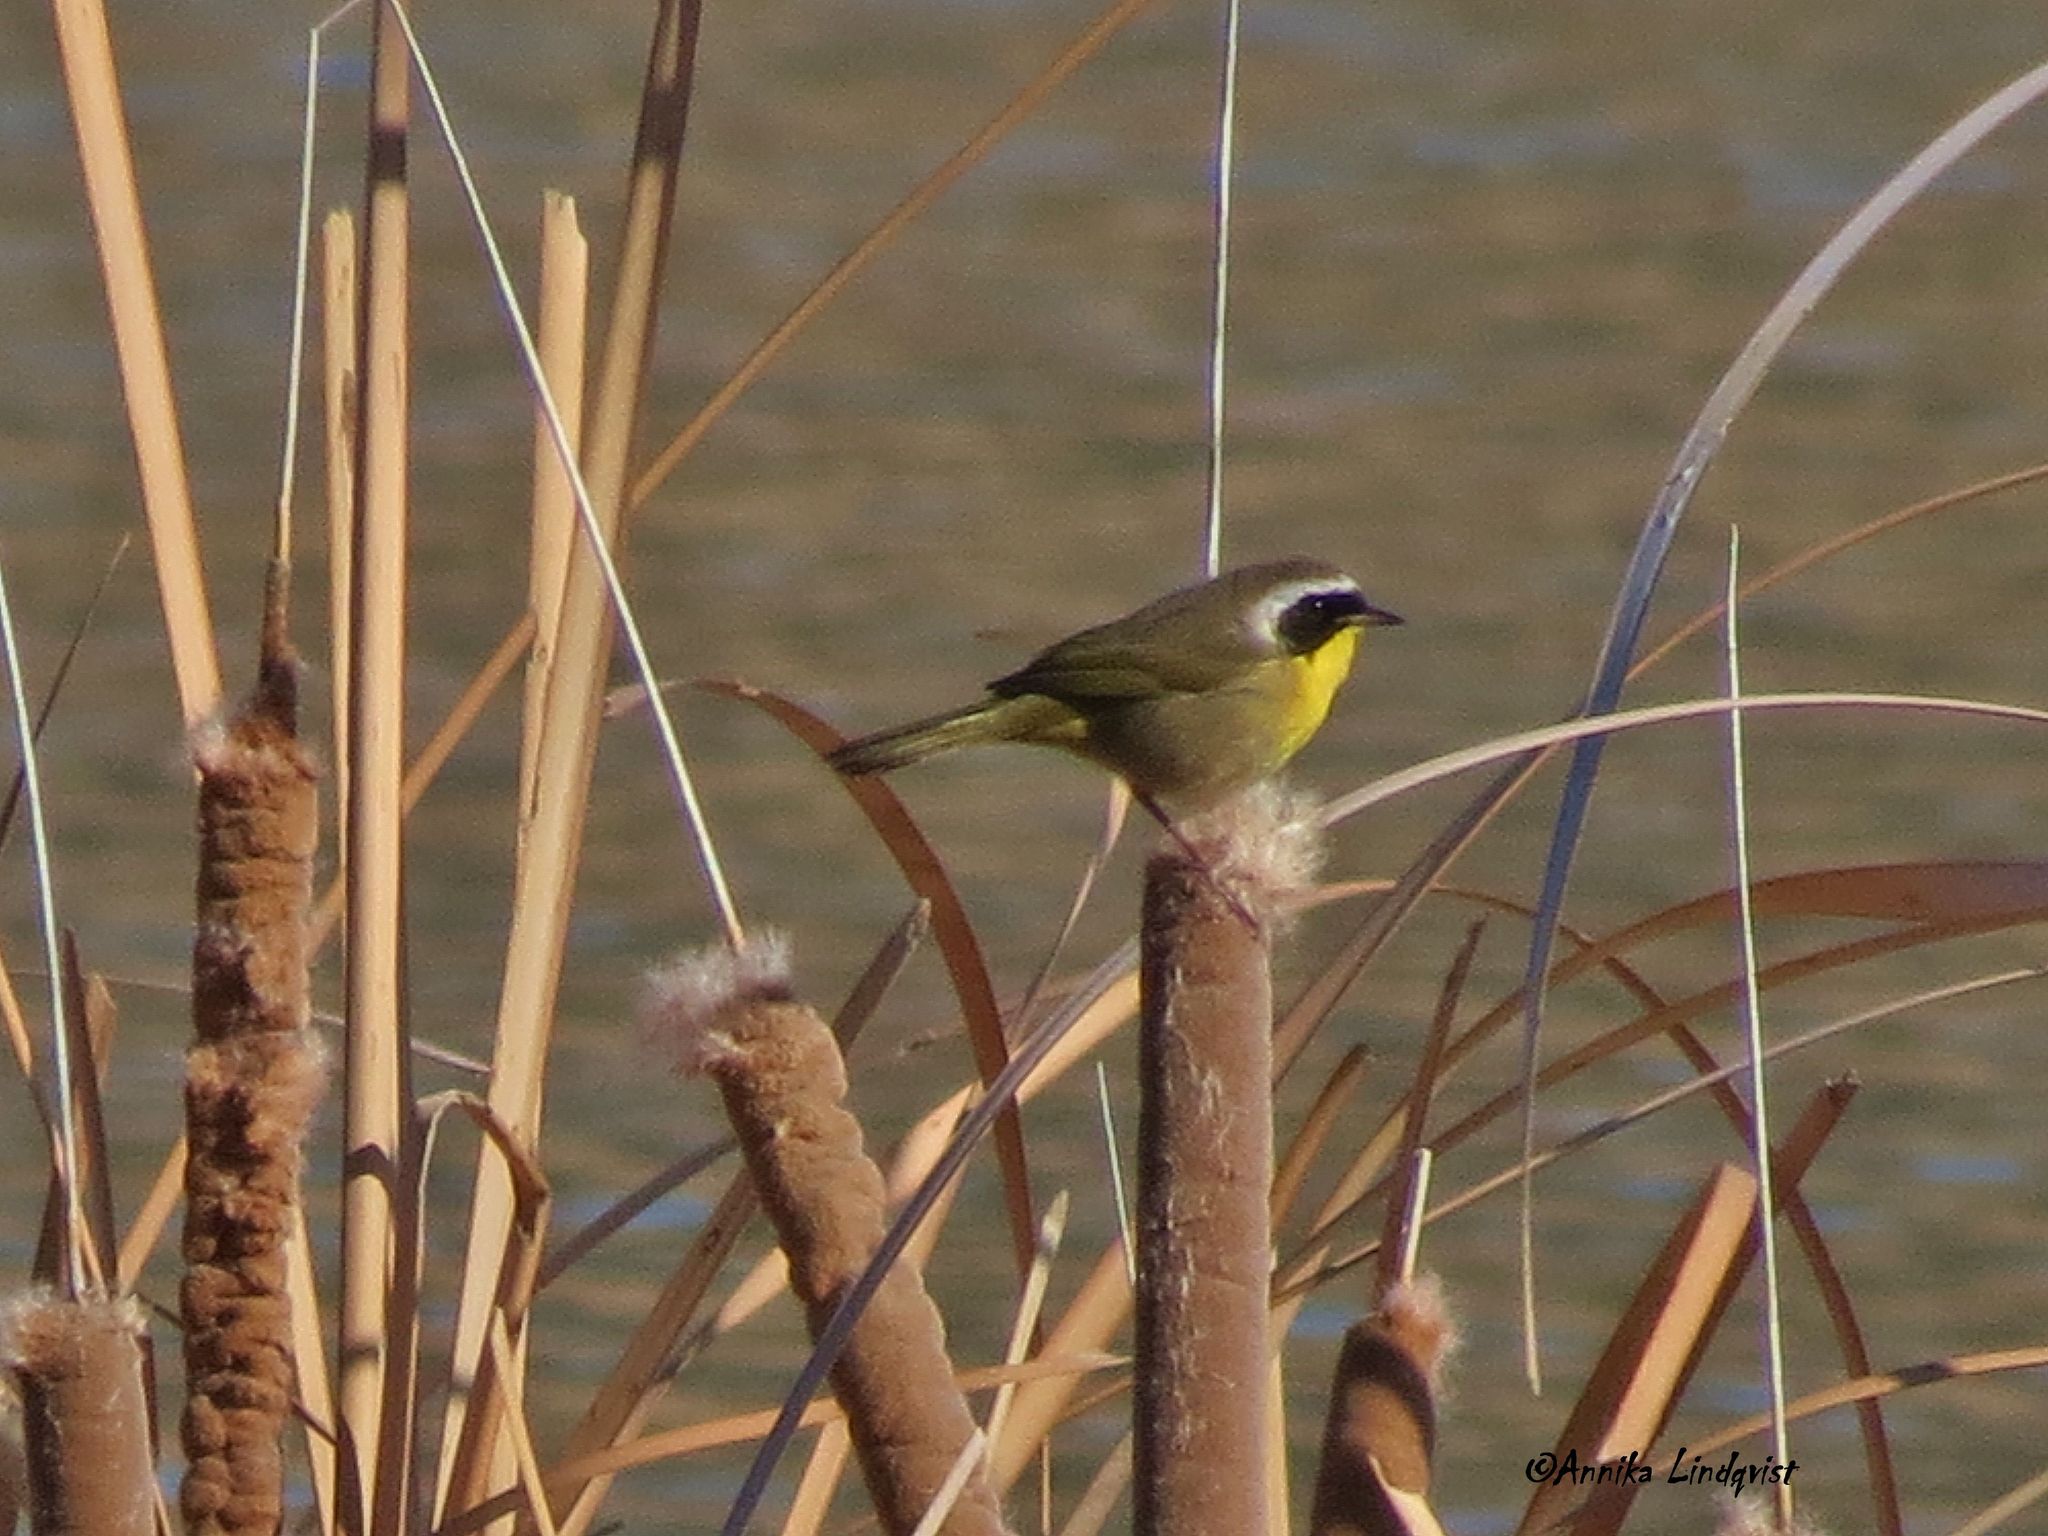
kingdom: Animalia
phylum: Chordata
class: Aves
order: Passeriformes
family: Parulidae
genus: Geothlypis
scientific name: Geothlypis trichas
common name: Common yellowthroat
